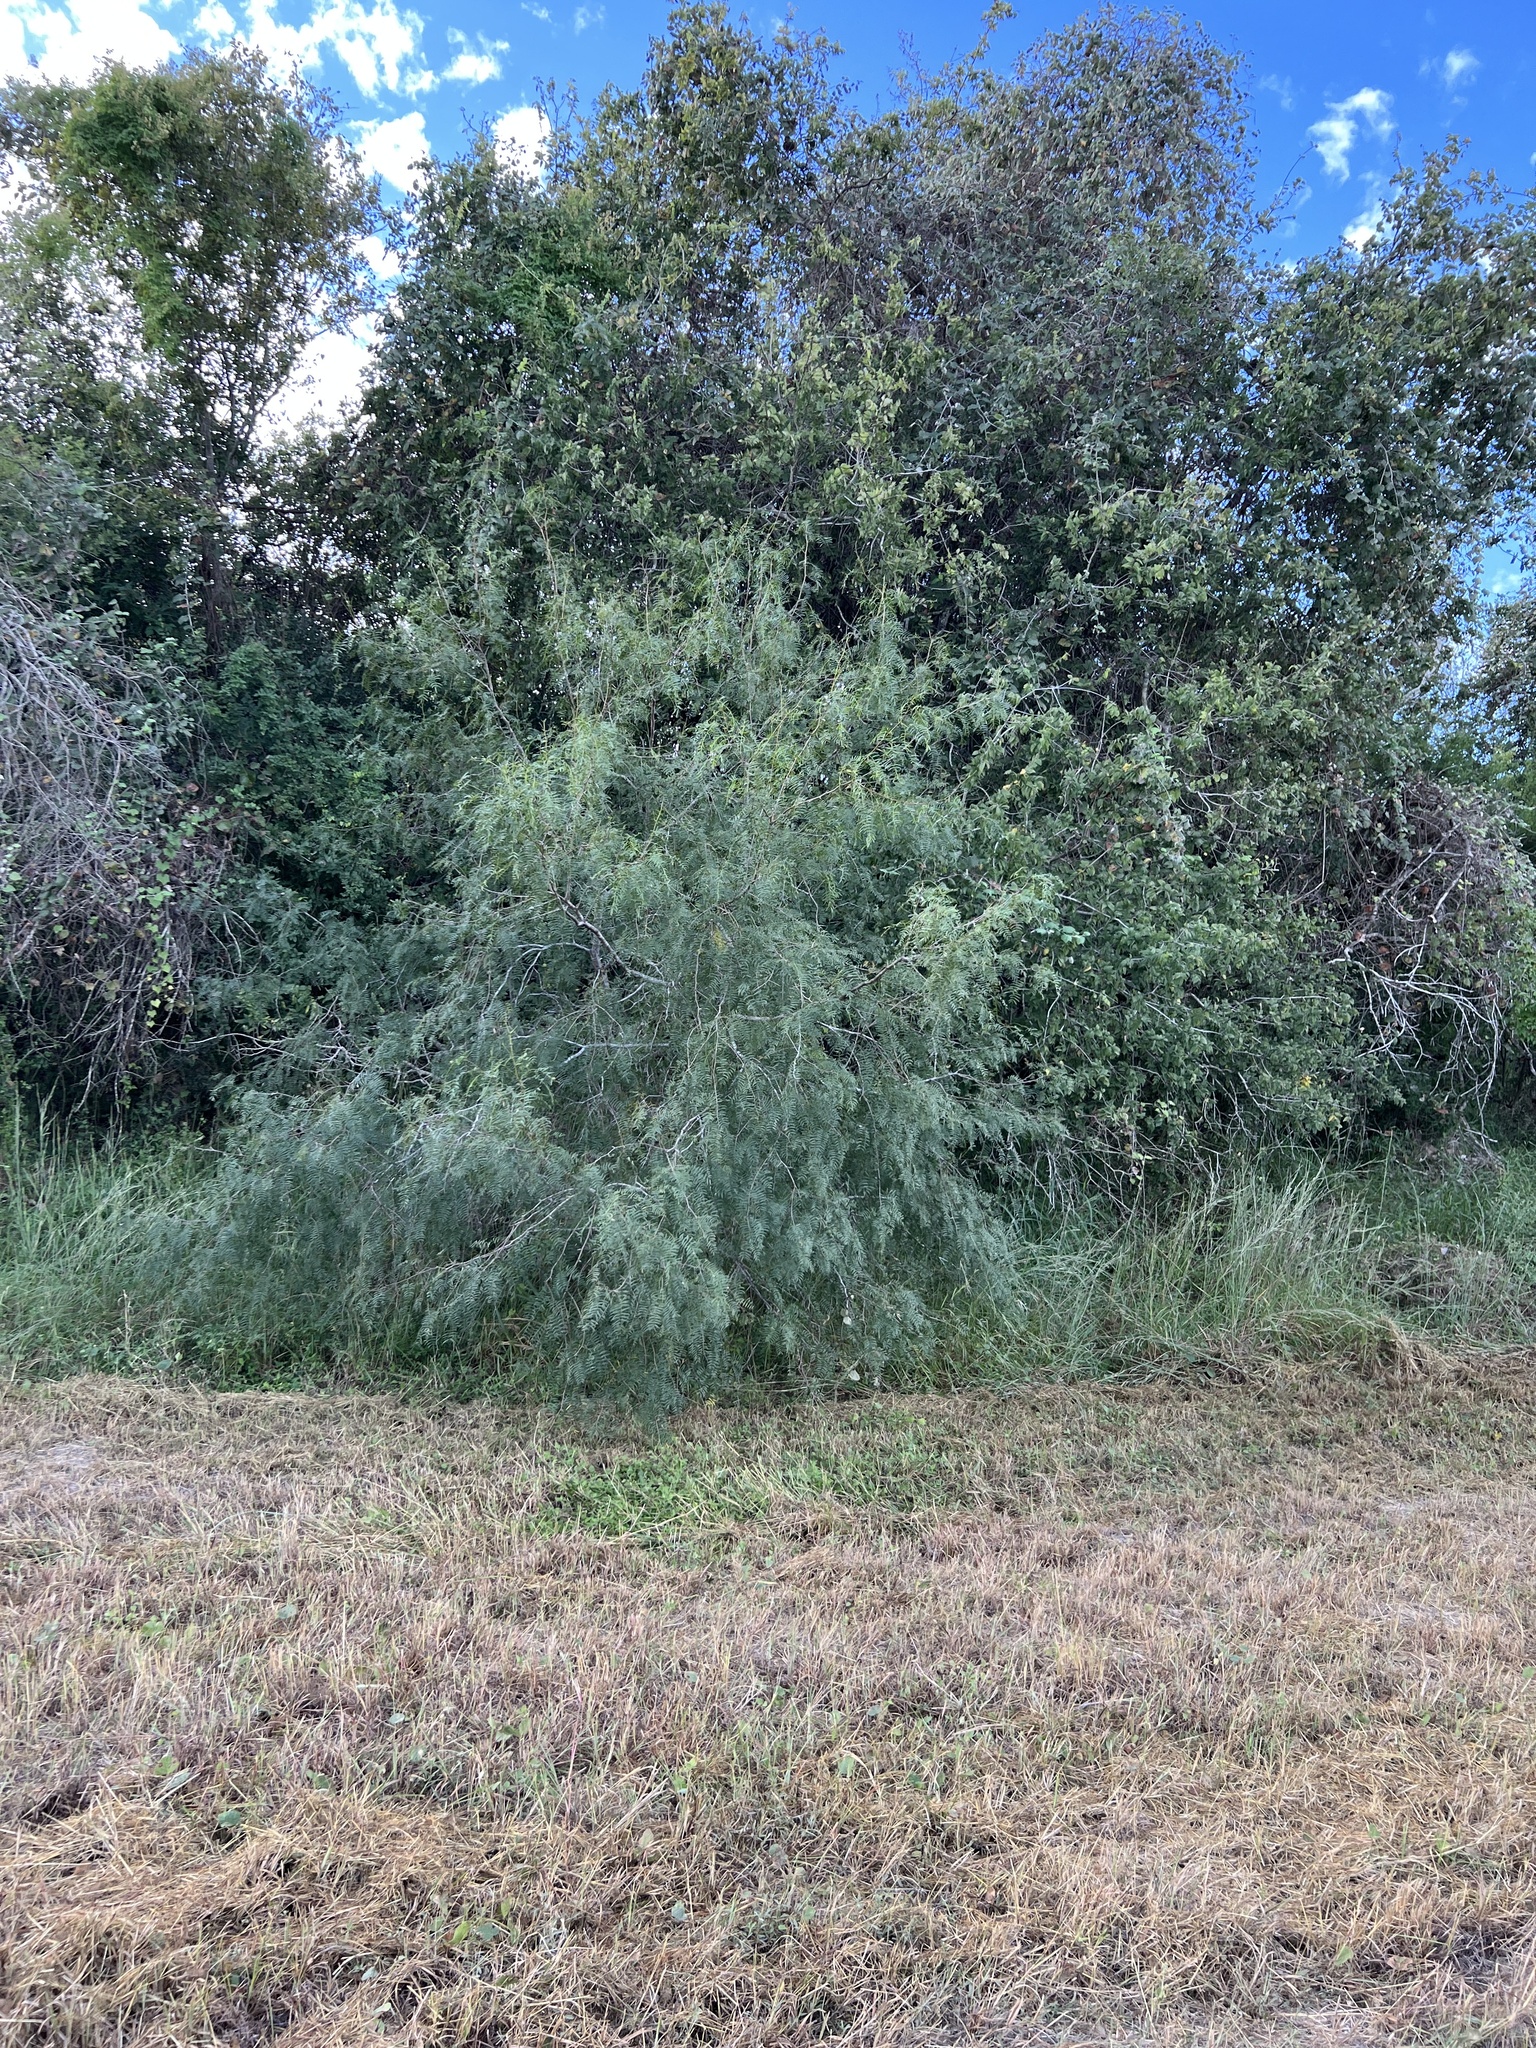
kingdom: Plantae
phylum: Tracheophyta
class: Magnoliopsida
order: Fabales
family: Fabaceae
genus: Prosopis
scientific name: Prosopis glandulosa
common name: Honey mesquite
